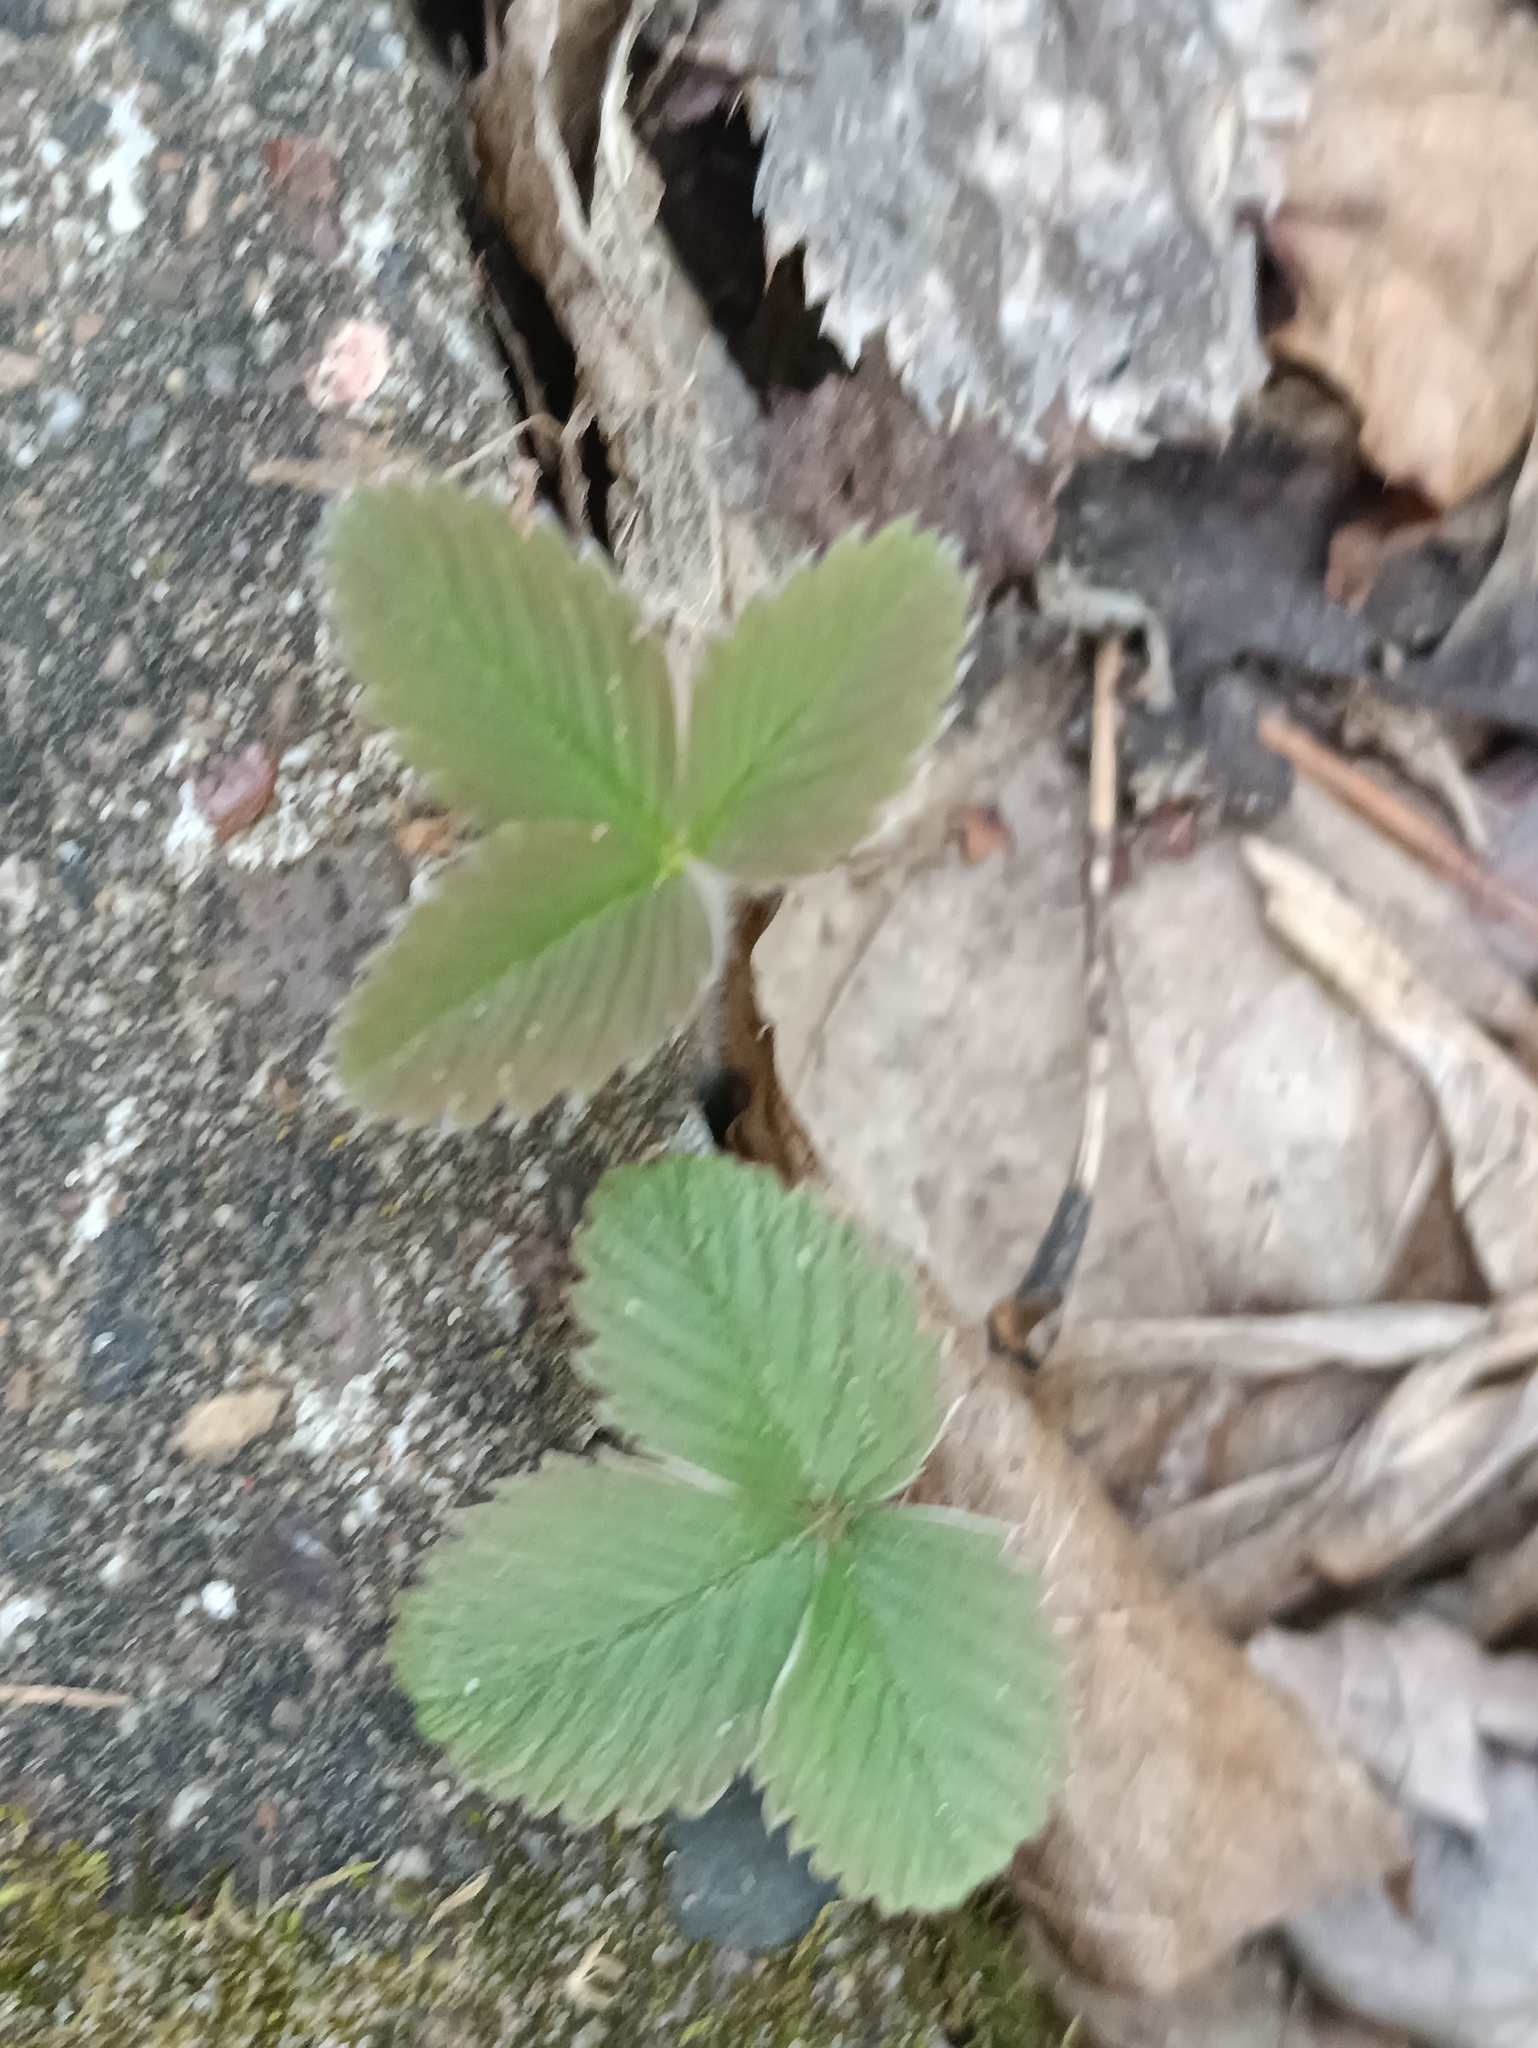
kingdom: Plantae
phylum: Tracheophyta
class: Magnoliopsida
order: Rosales
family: Rosaceae
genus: Fragaria
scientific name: Fragaria viridis
